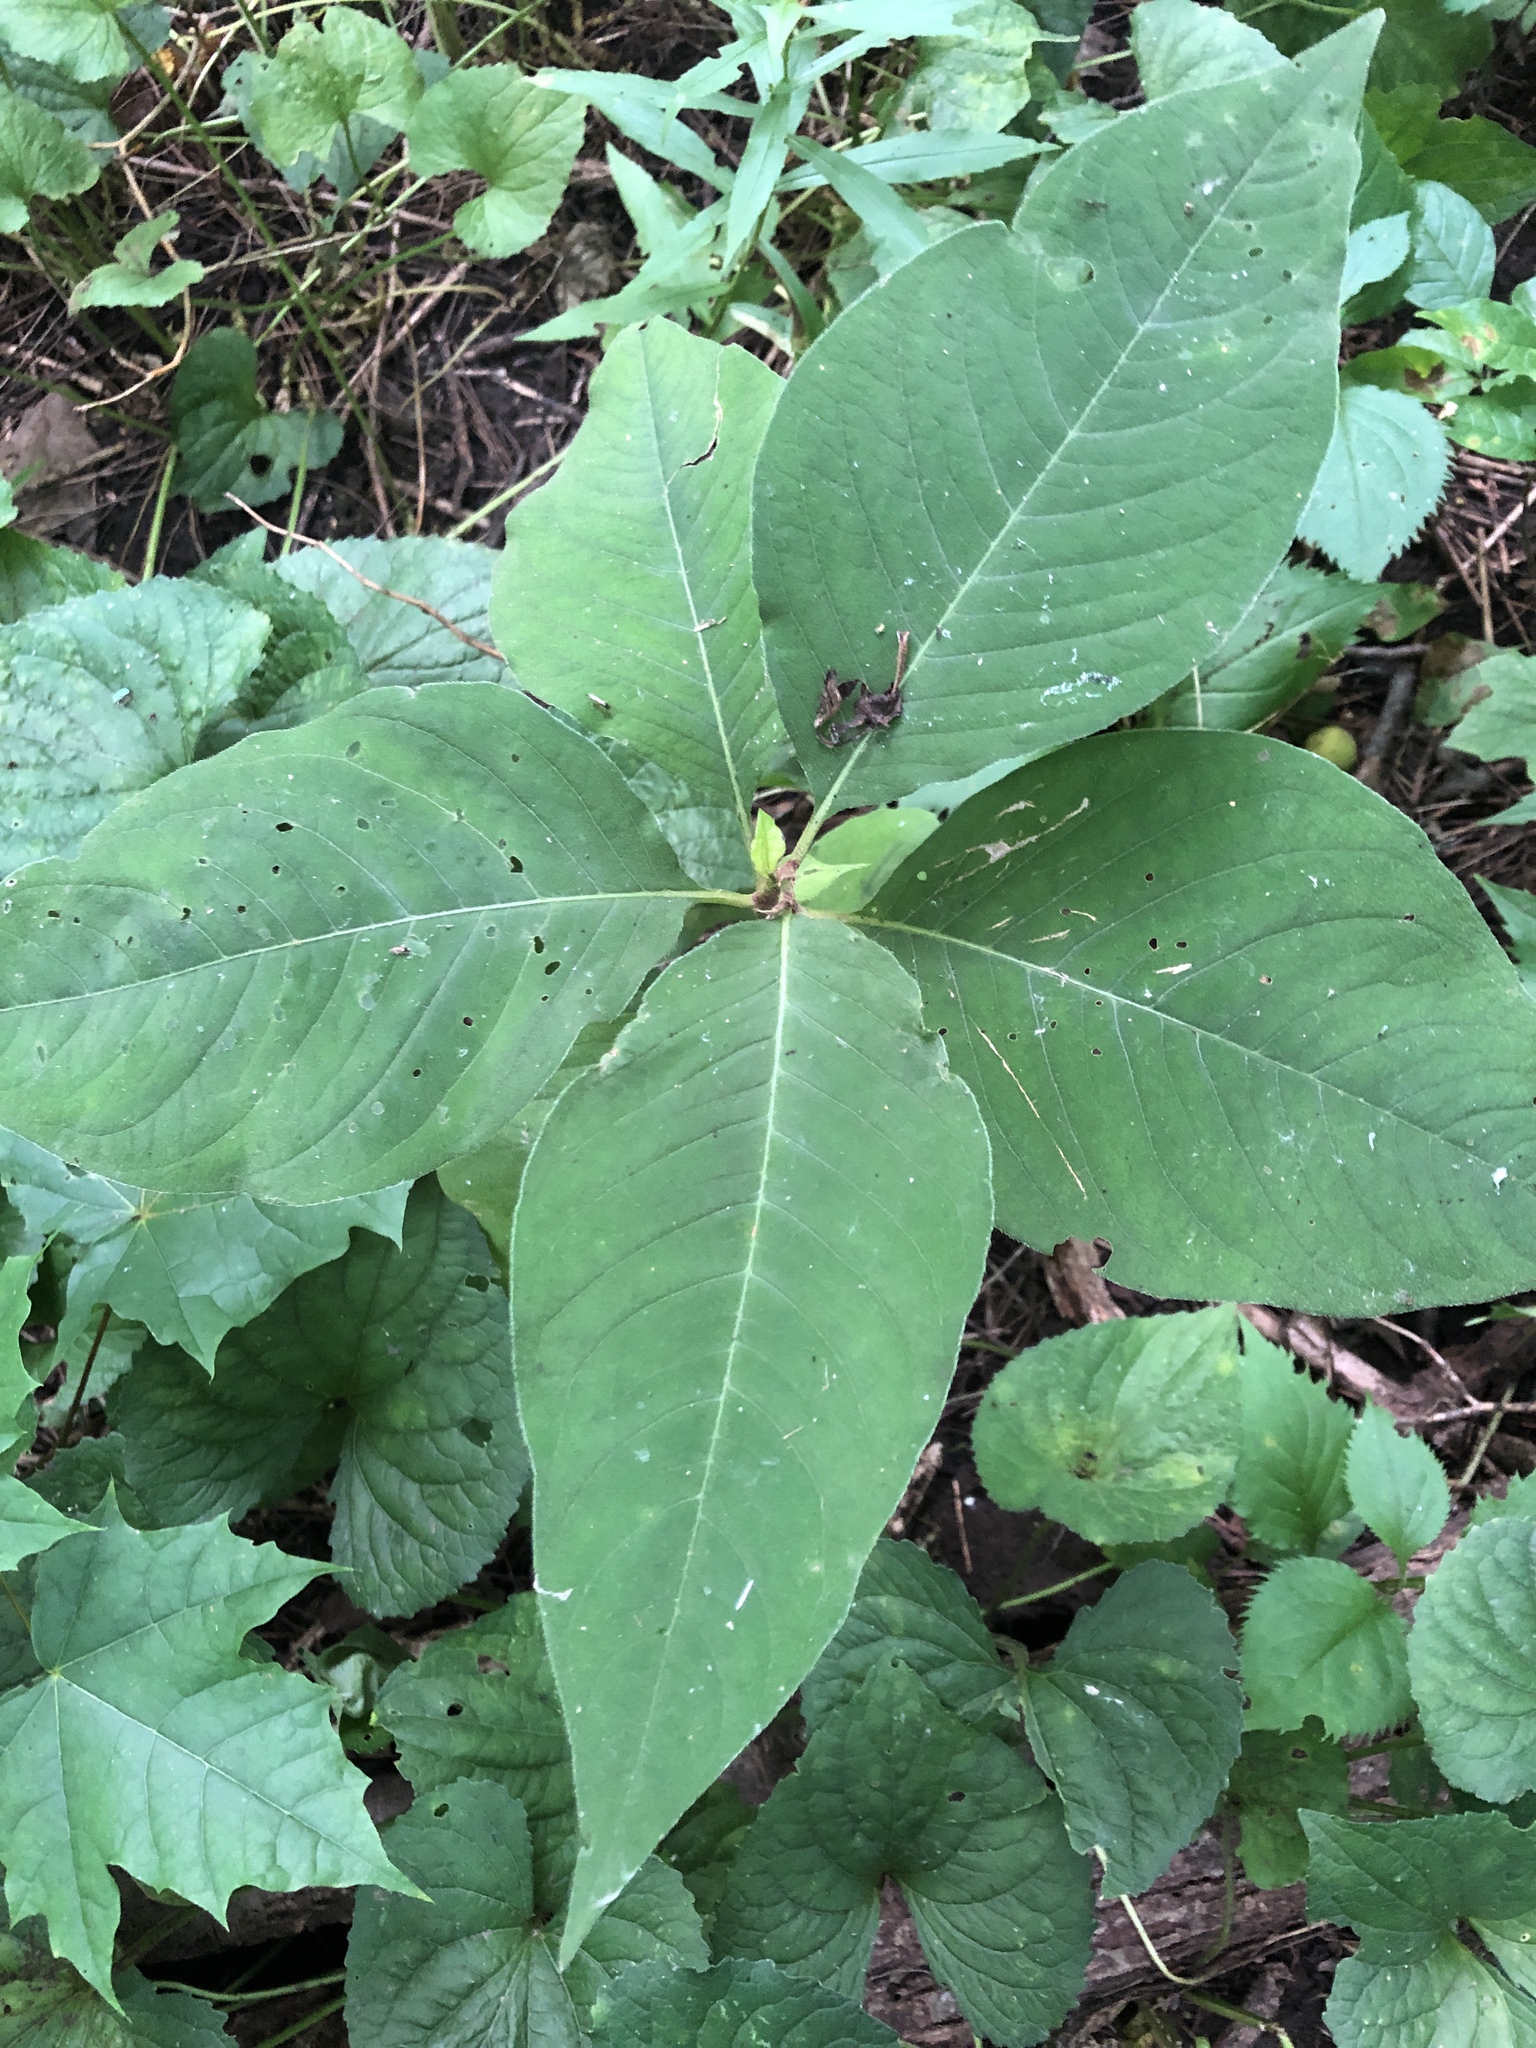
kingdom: Plantae
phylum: Tracheophyta
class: Magnoliopsida
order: Caryophyllales
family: Polygonaceae
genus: Persicaria
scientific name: Persicaria virginiana
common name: Jumpseed
